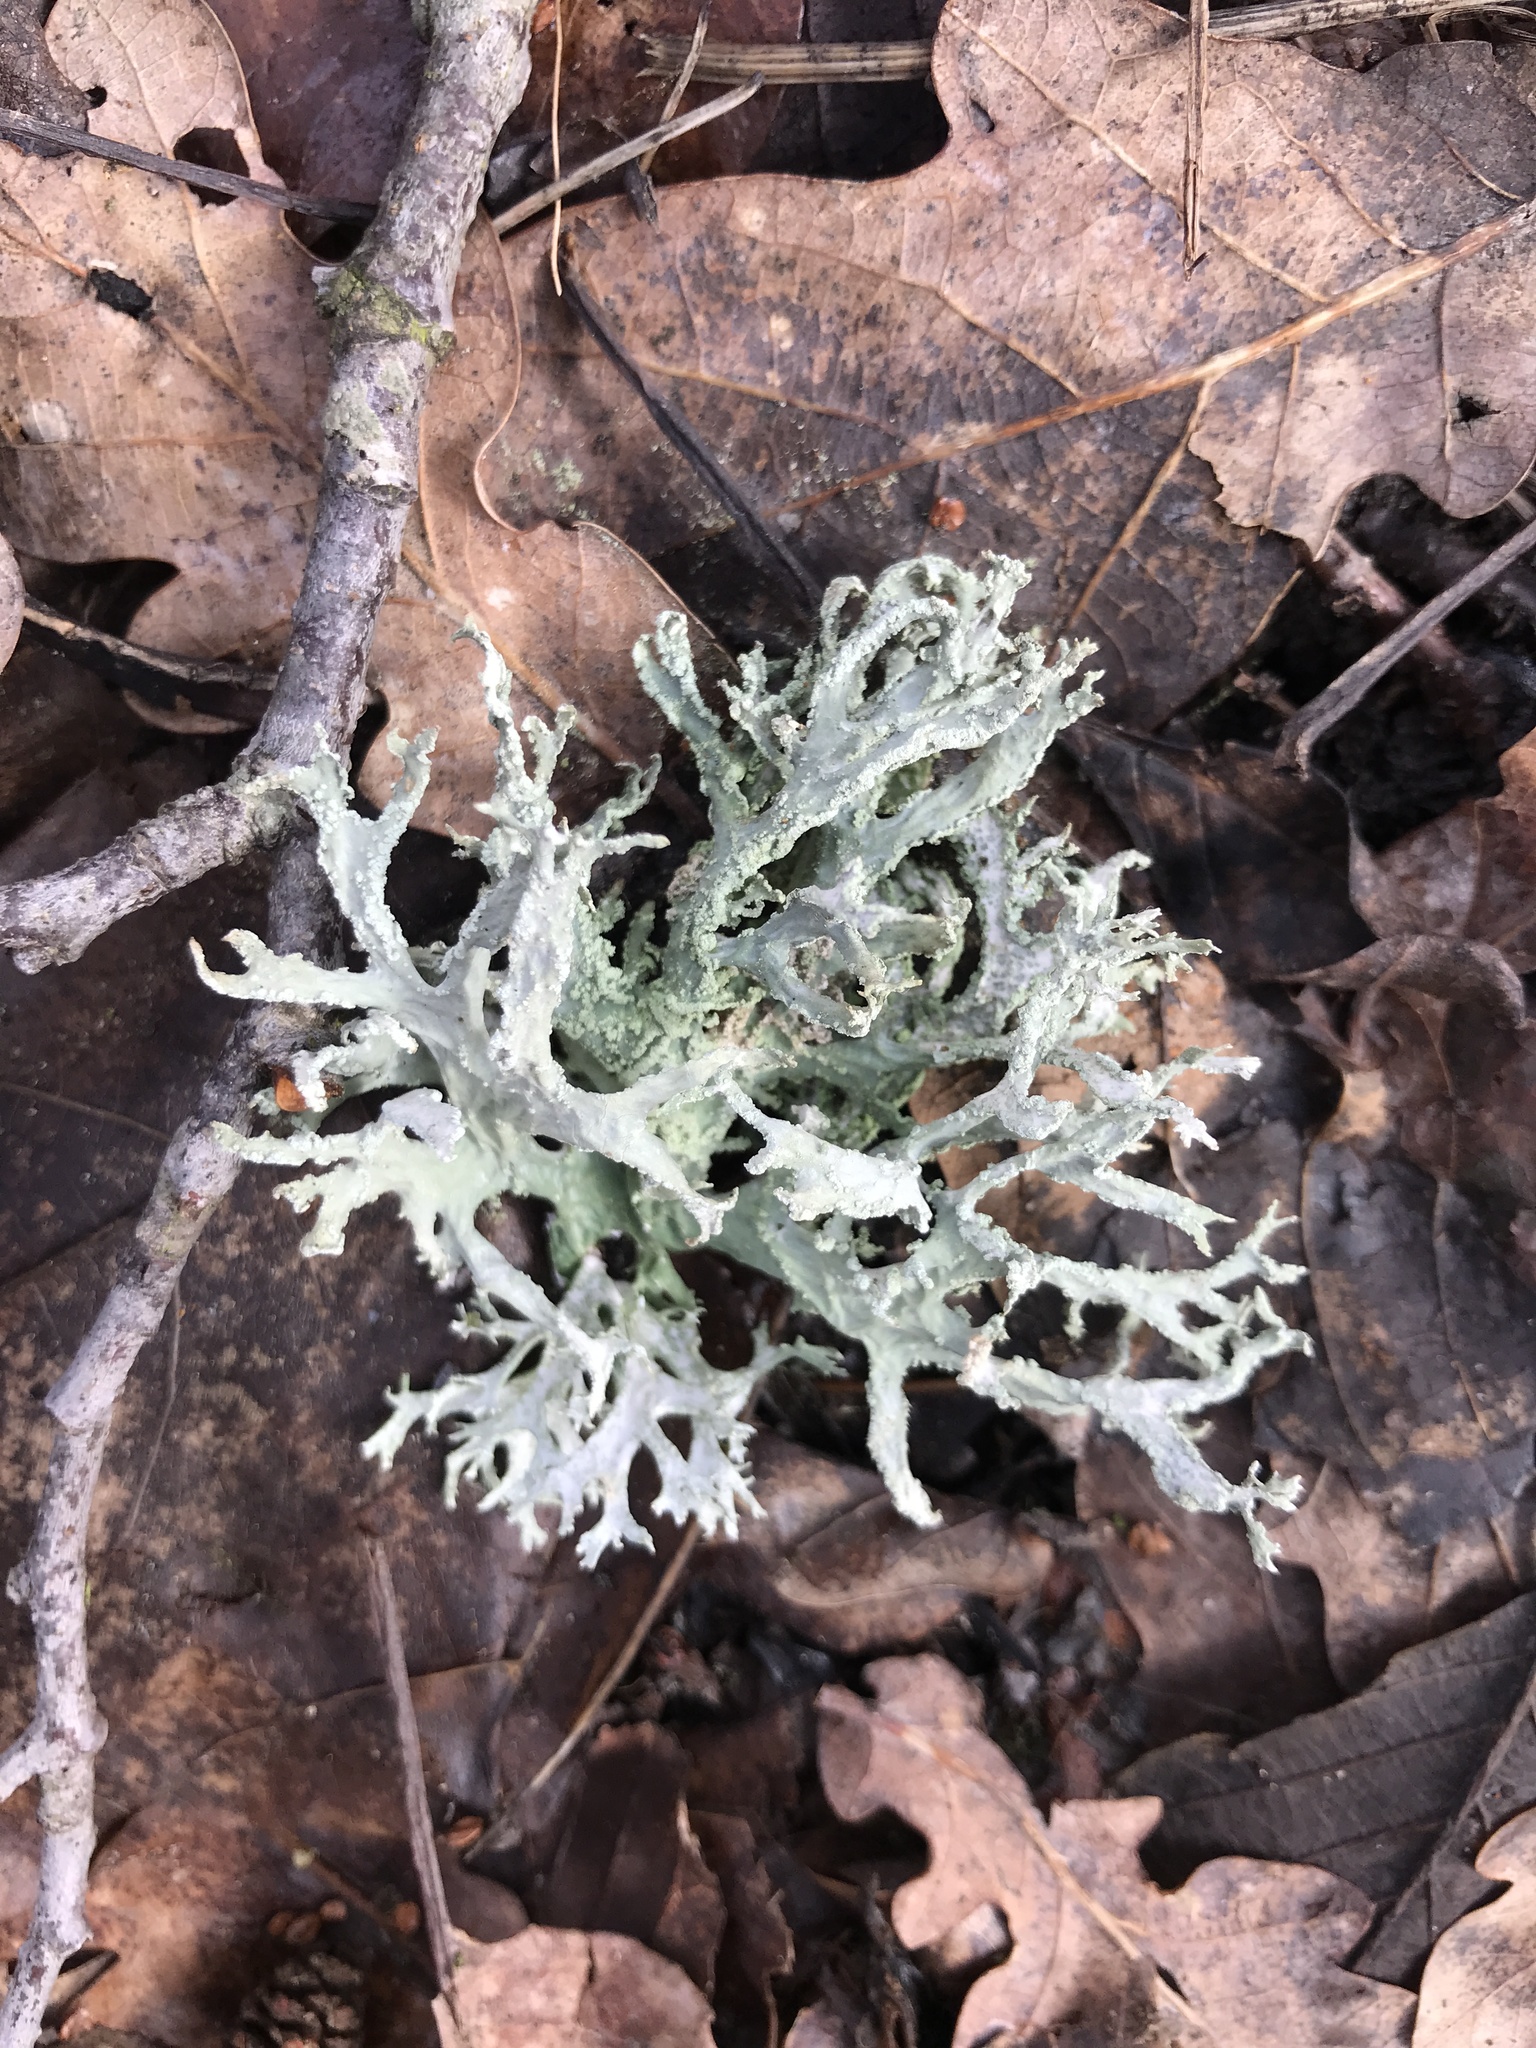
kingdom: Fungi
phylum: Ascomycota
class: Lecanoromycetes
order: Lecanorales
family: Parmeliaceae
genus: Evernia
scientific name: Evernia prunastri
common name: Oak moss
